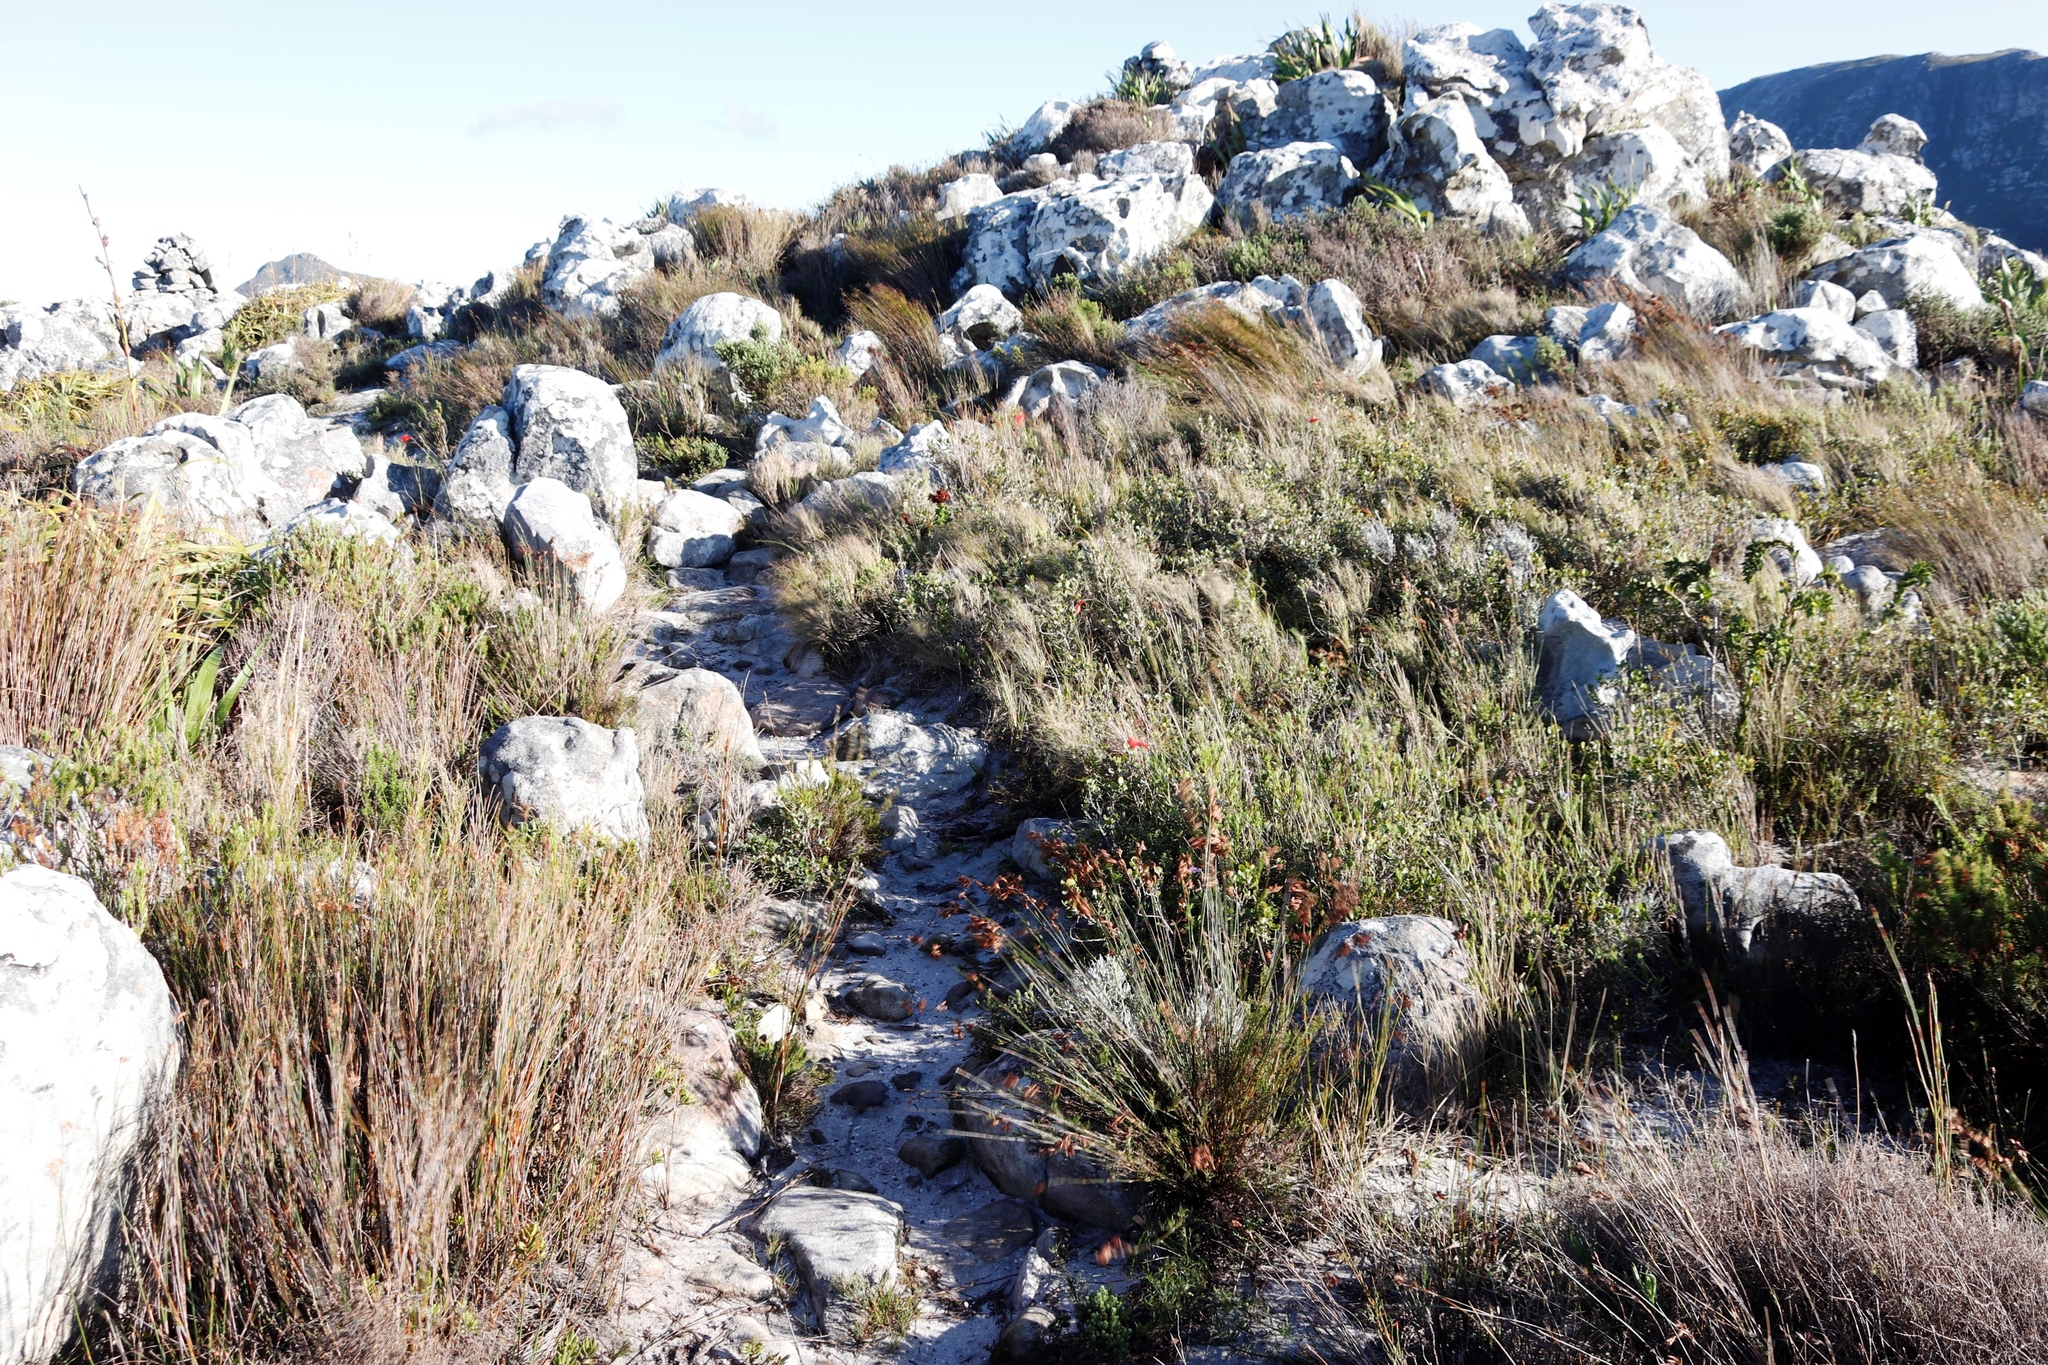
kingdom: Plantae
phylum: Tracheophyta
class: Liliopsida
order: Poales
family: Poaceae
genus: Pseudopentameris
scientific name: Pseudopentameris macrantha
